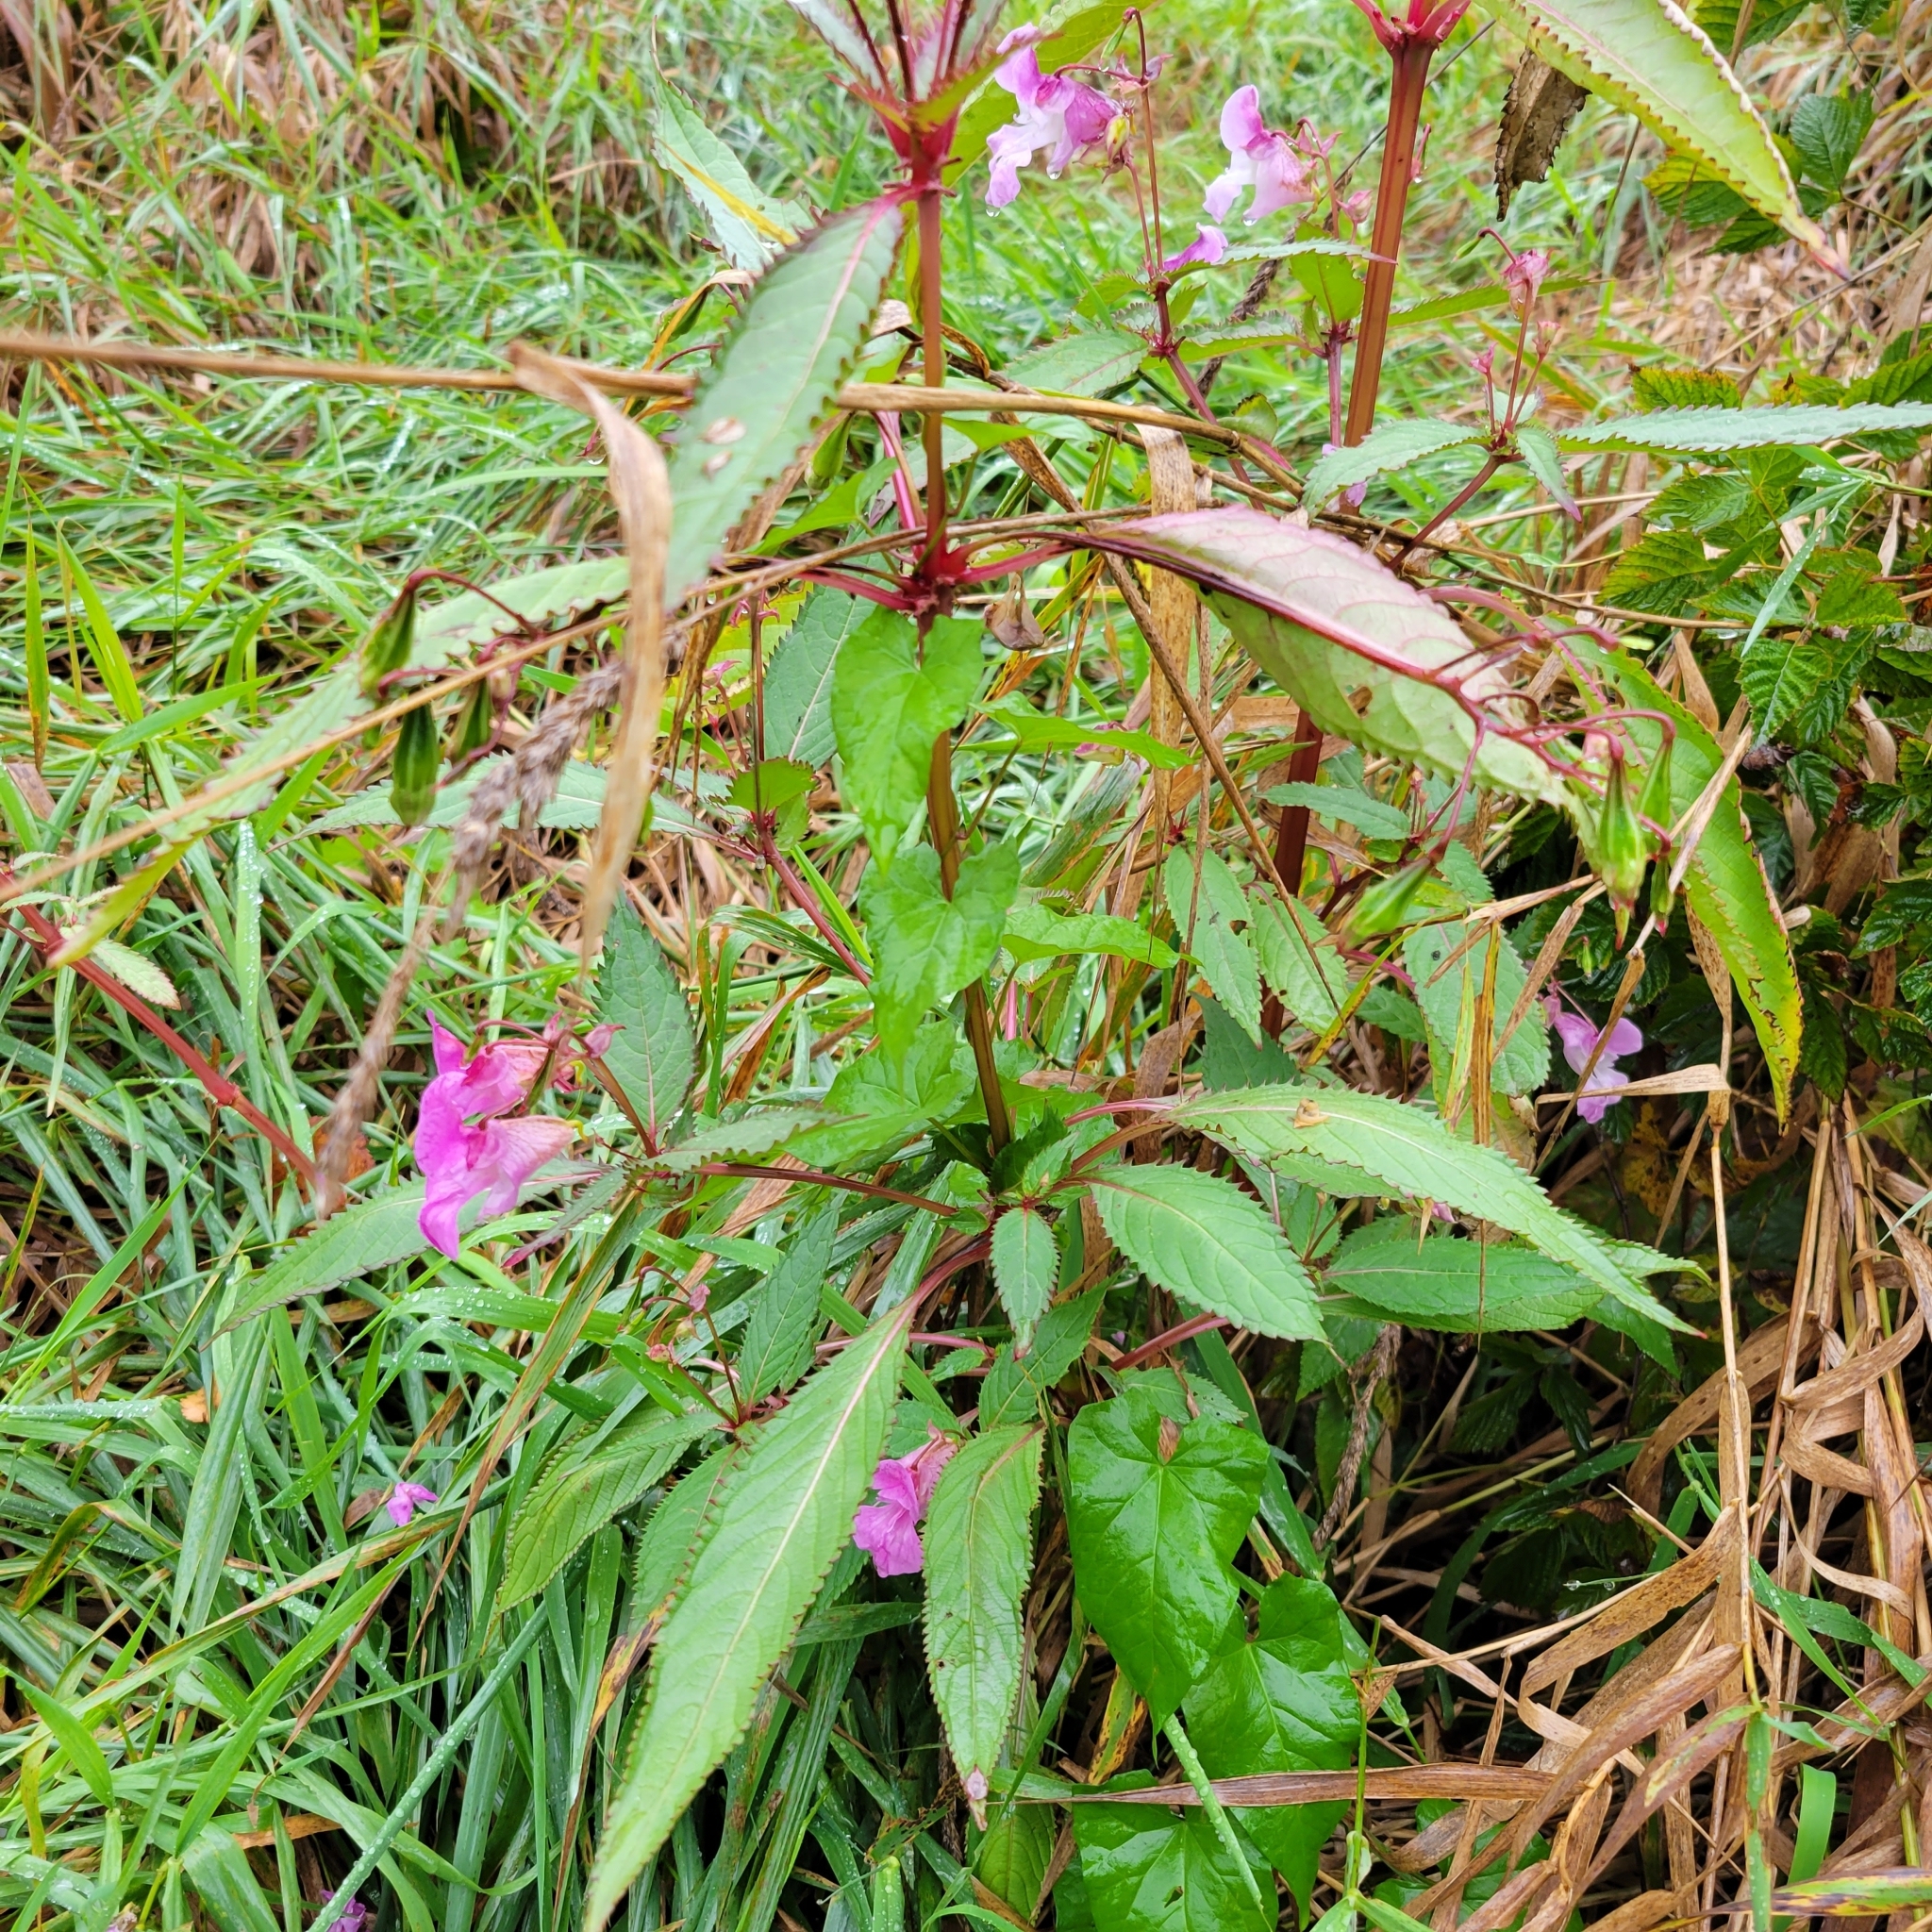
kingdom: Plantae
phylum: Tracheophyta
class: Magnoliopsida
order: Ericales
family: Balsaminaceae
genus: Impatiens
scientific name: Impatiens glandulifera
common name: Himalayan balsam
